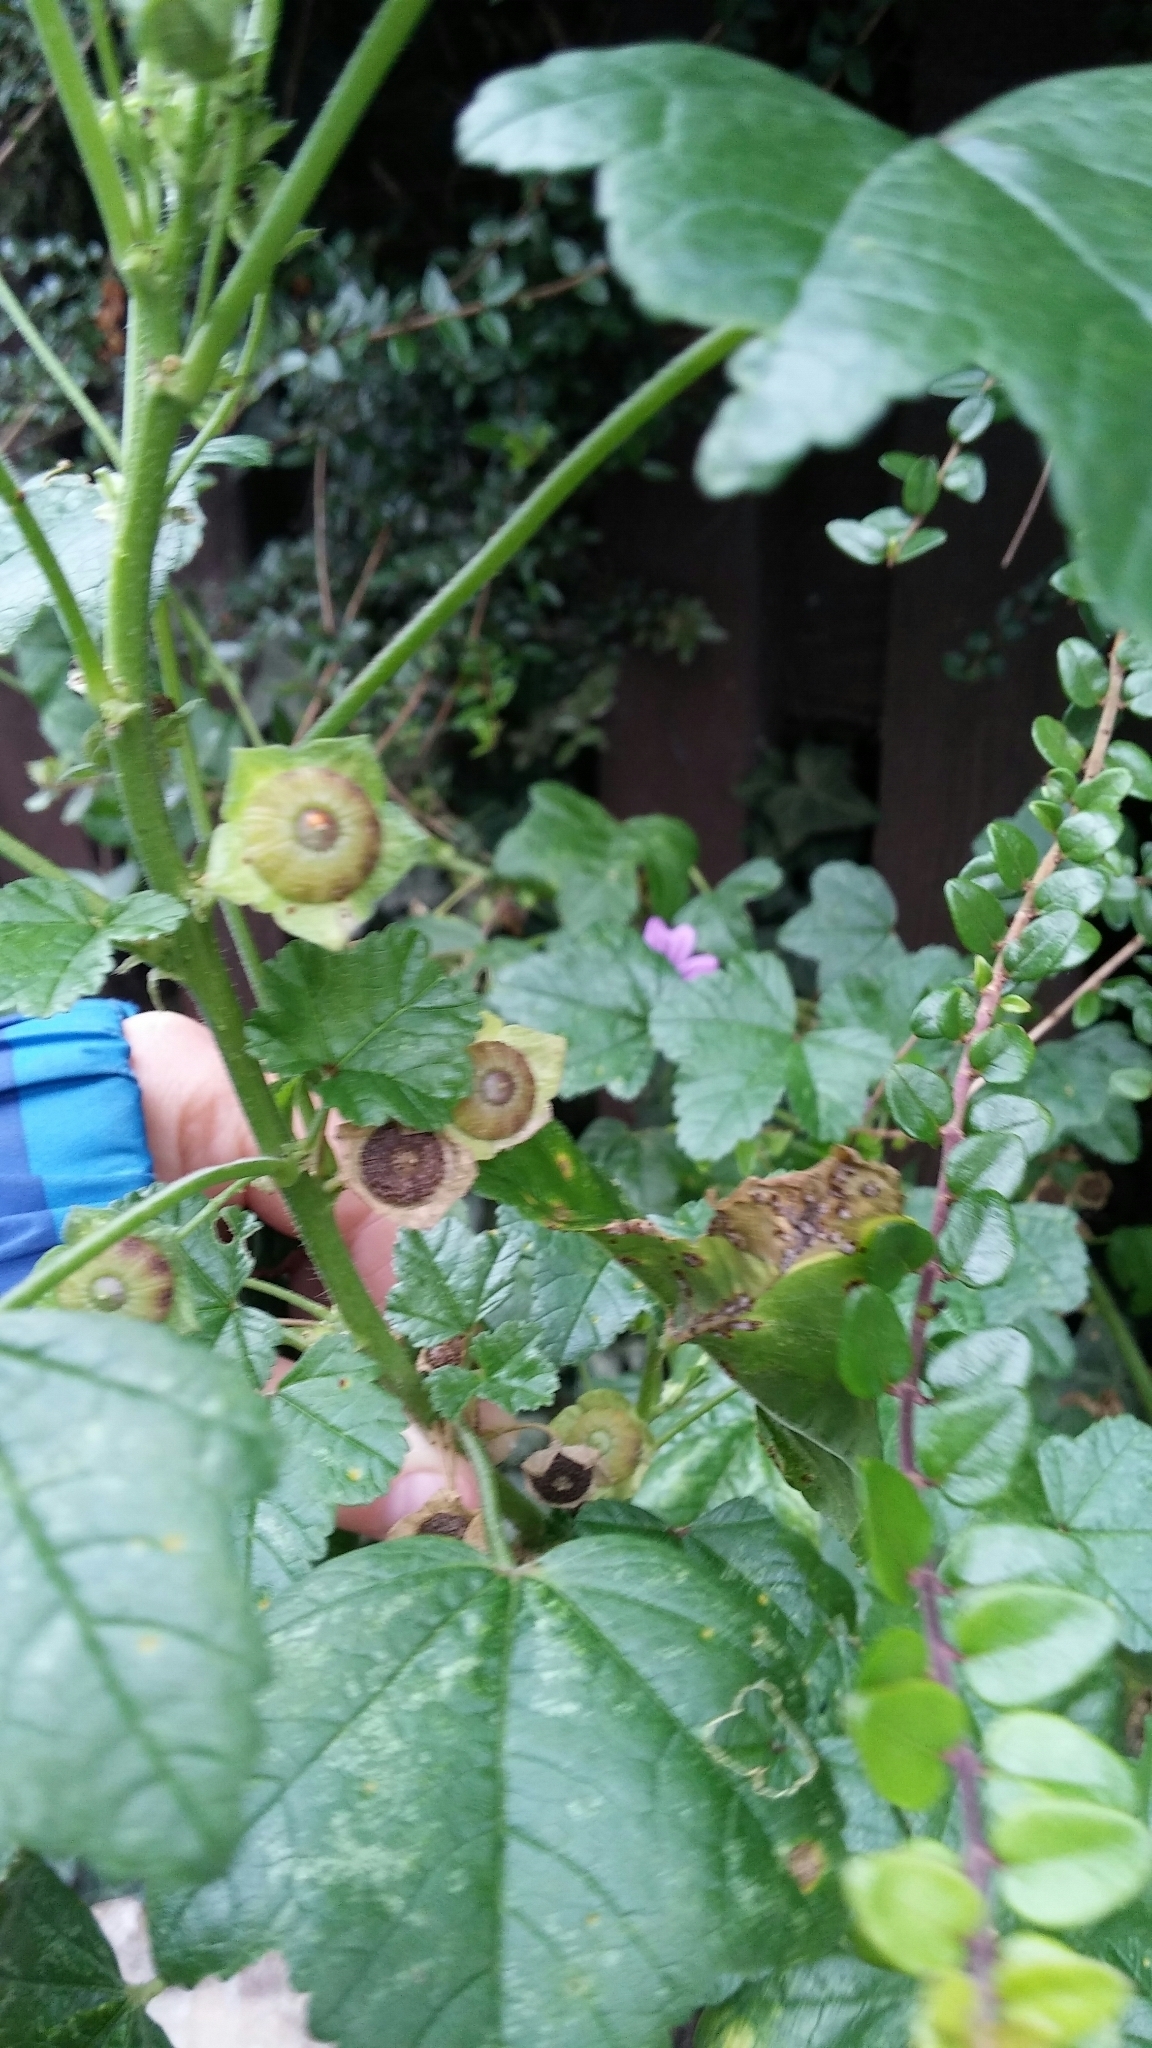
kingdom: Plantae
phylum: Tracheophyta
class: Magnoliopsida
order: Malvales
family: Malvaceae
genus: Malva
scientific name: Malva sylvestris
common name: Common mallow
